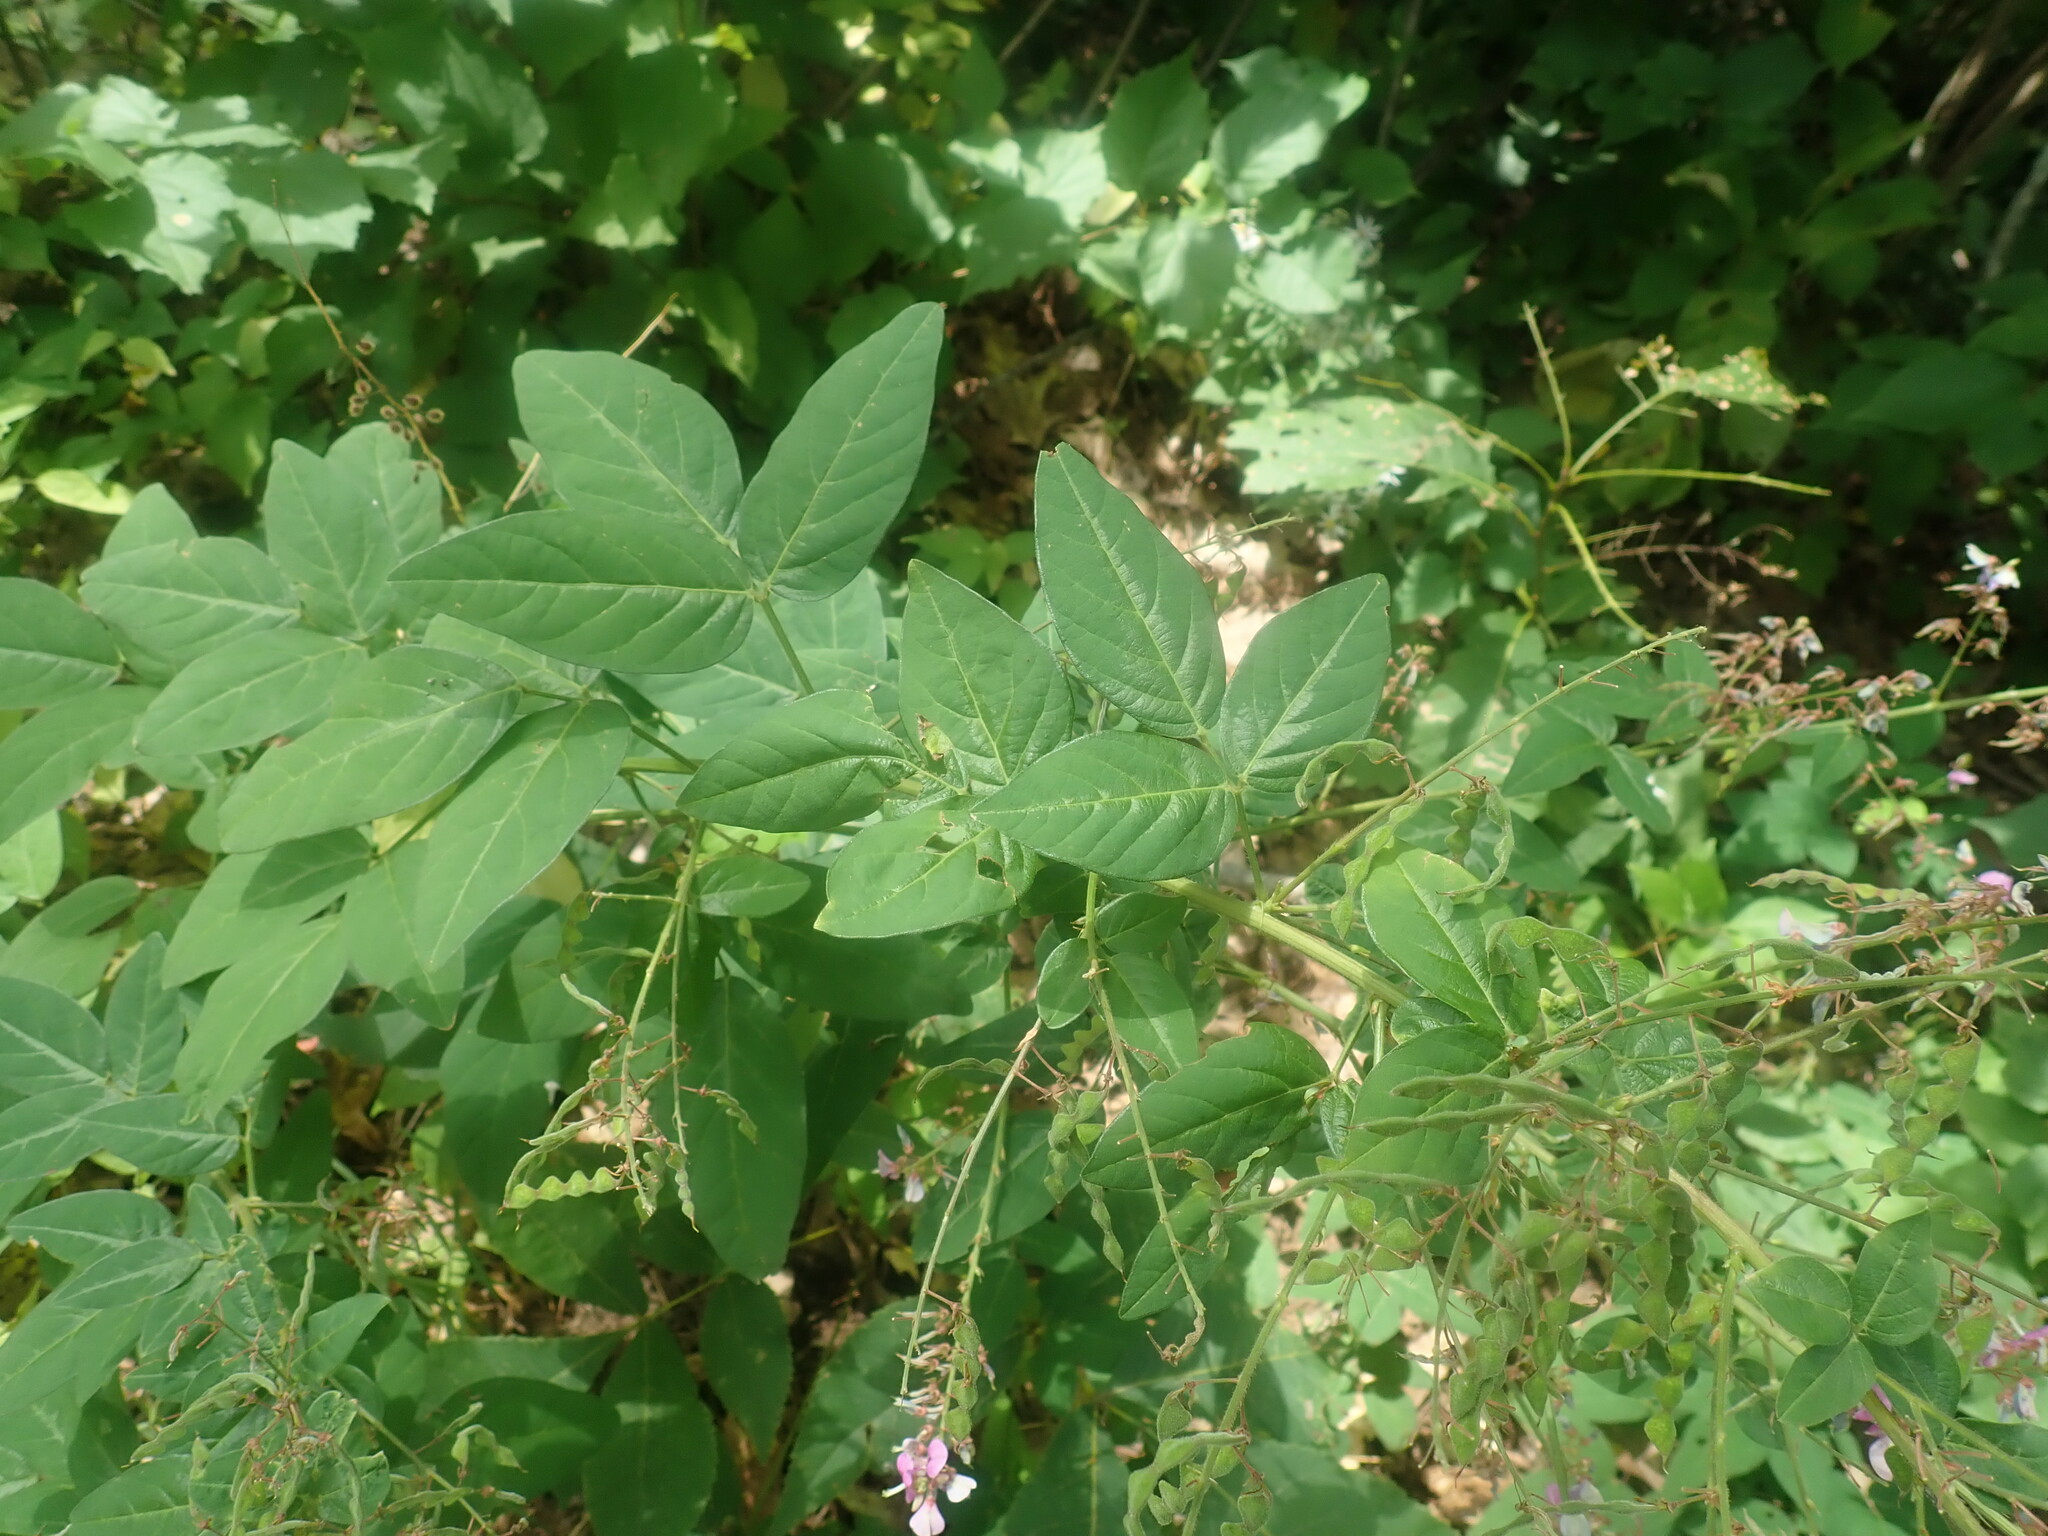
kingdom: Plantae
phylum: Tracheophyta
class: Magnoliopsida
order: Fabales
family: Fabaceae
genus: Desmodium
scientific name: Desmodium canadense
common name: Canada tick-trefoil
